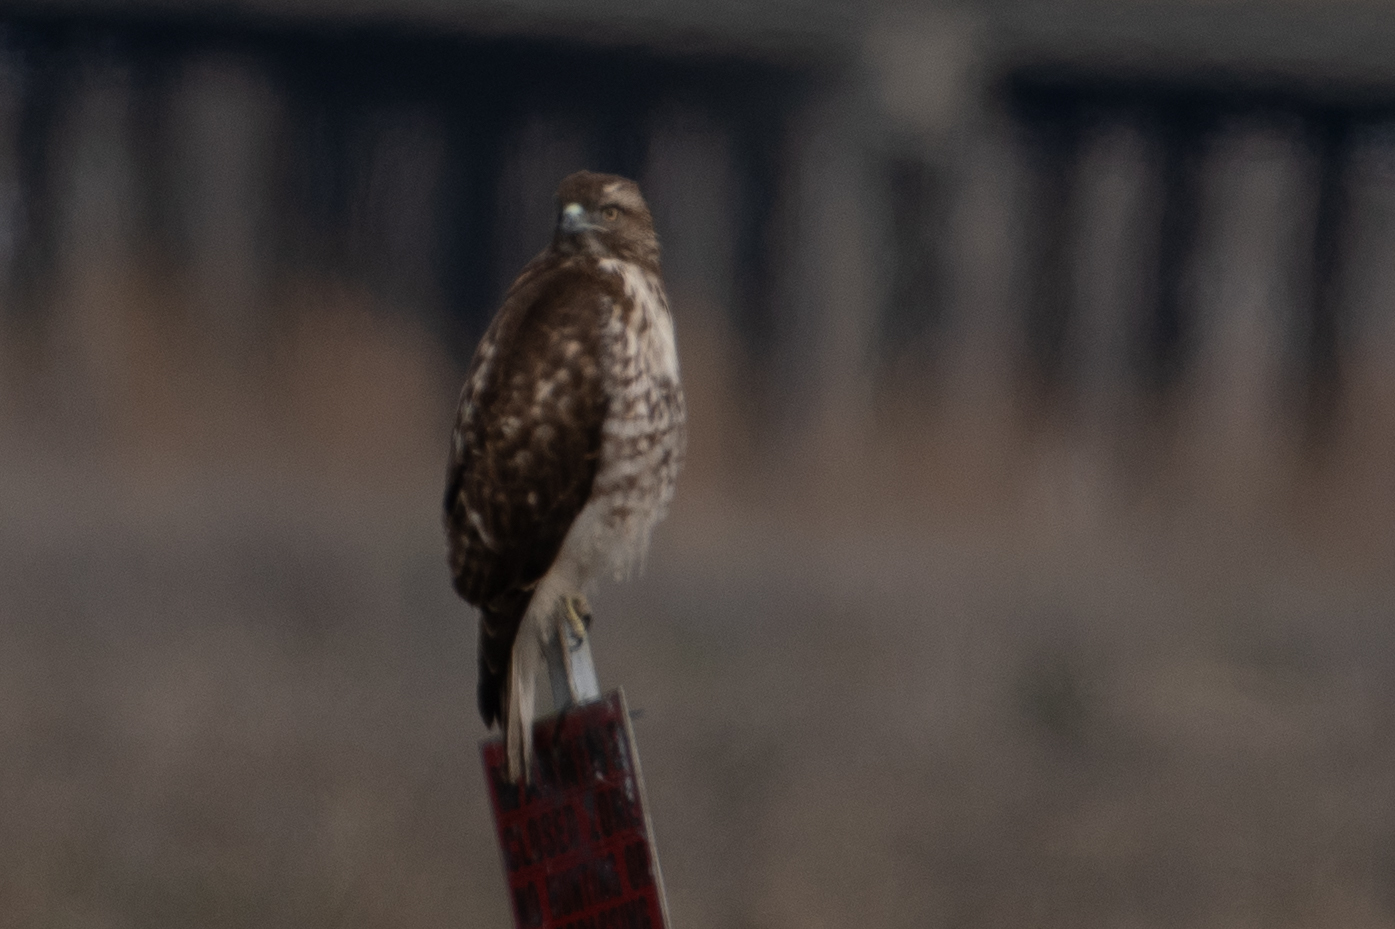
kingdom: Animalia
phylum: Chordata
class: Aves
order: Accipitriformes
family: Accipitridae
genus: Buteo
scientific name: Buteo jamaicensis
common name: Red-tailed hawk
